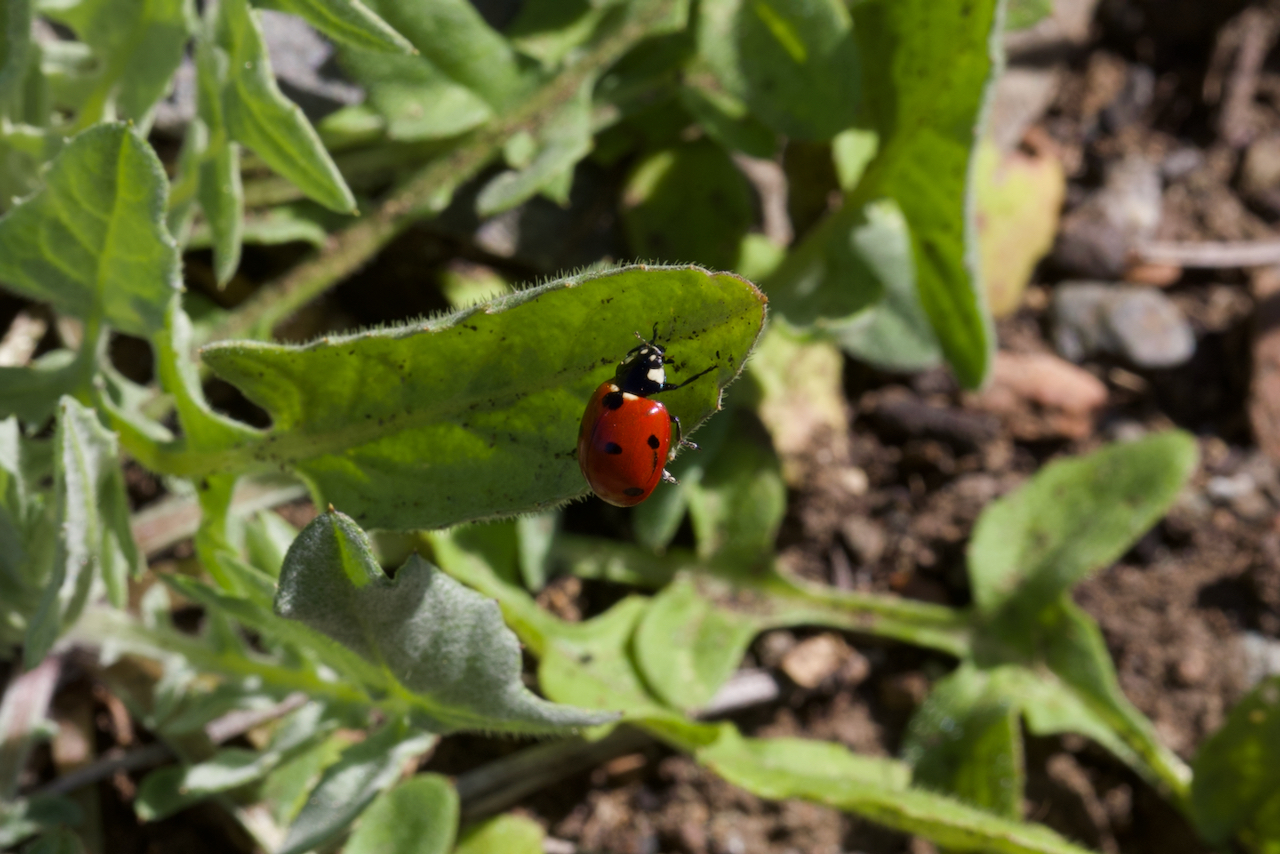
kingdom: Animalia
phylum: Arthropoda
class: Insecta
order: Coleoptera
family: Coccinellidae
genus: Coccinella
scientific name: Coccinella septempunctata
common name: Sevenspotted lady beetle
